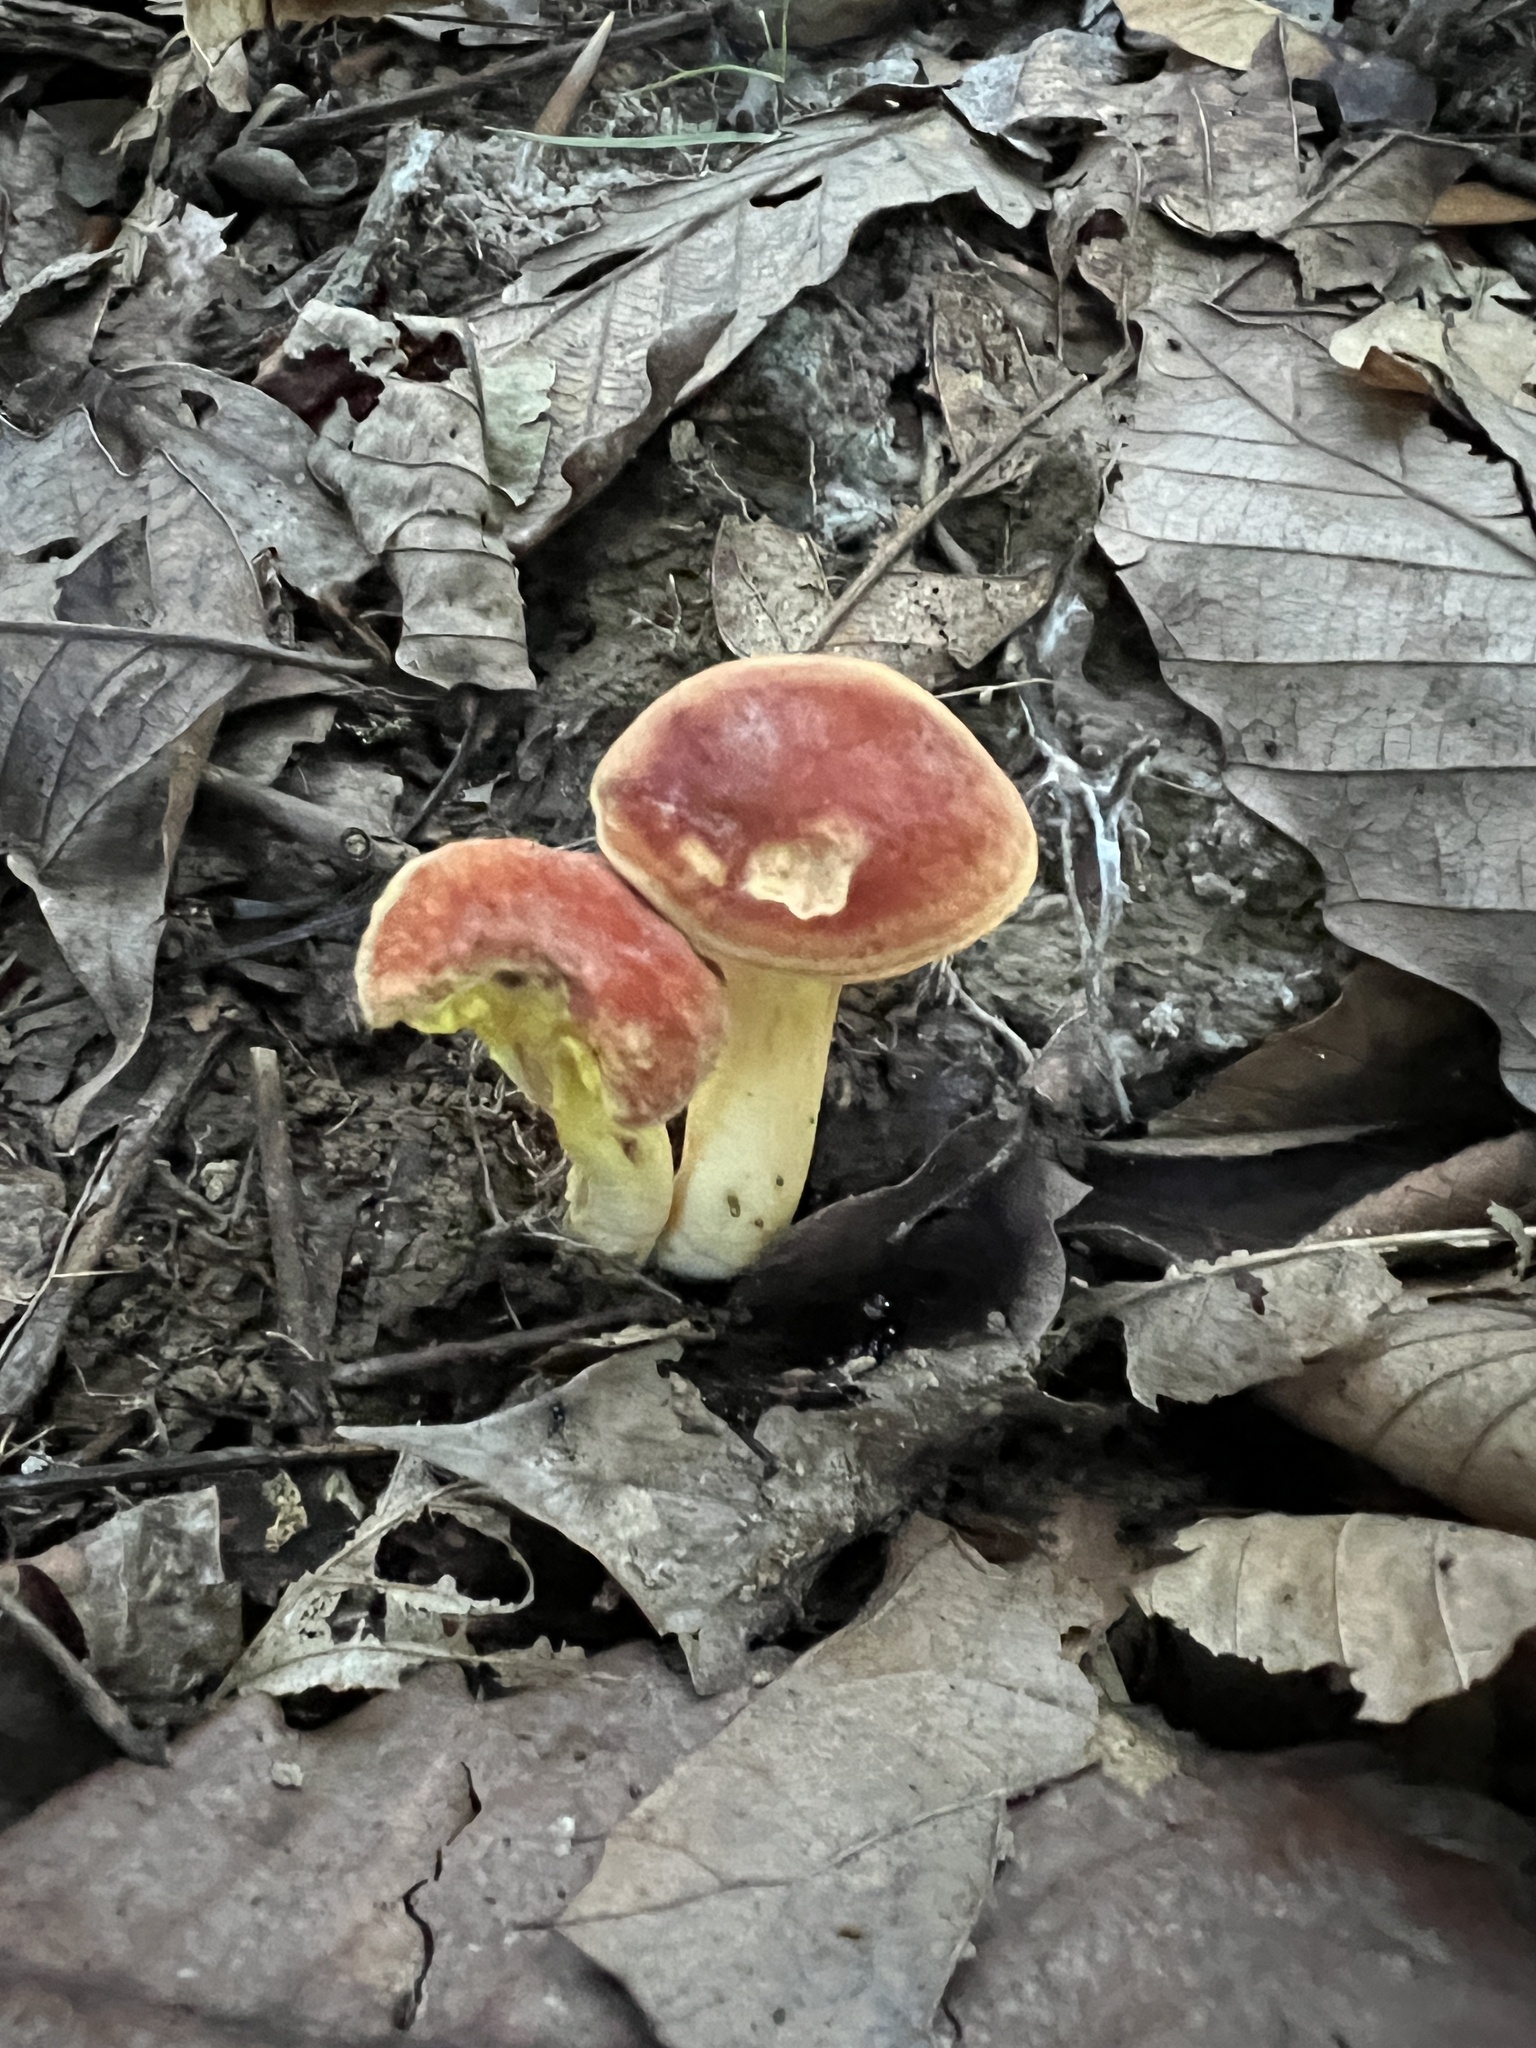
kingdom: Fungi
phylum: Basidiomycota
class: Agaricomycetes
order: Boletales
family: Boletaceae
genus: Phylloporus
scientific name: Phylloporus bellus
